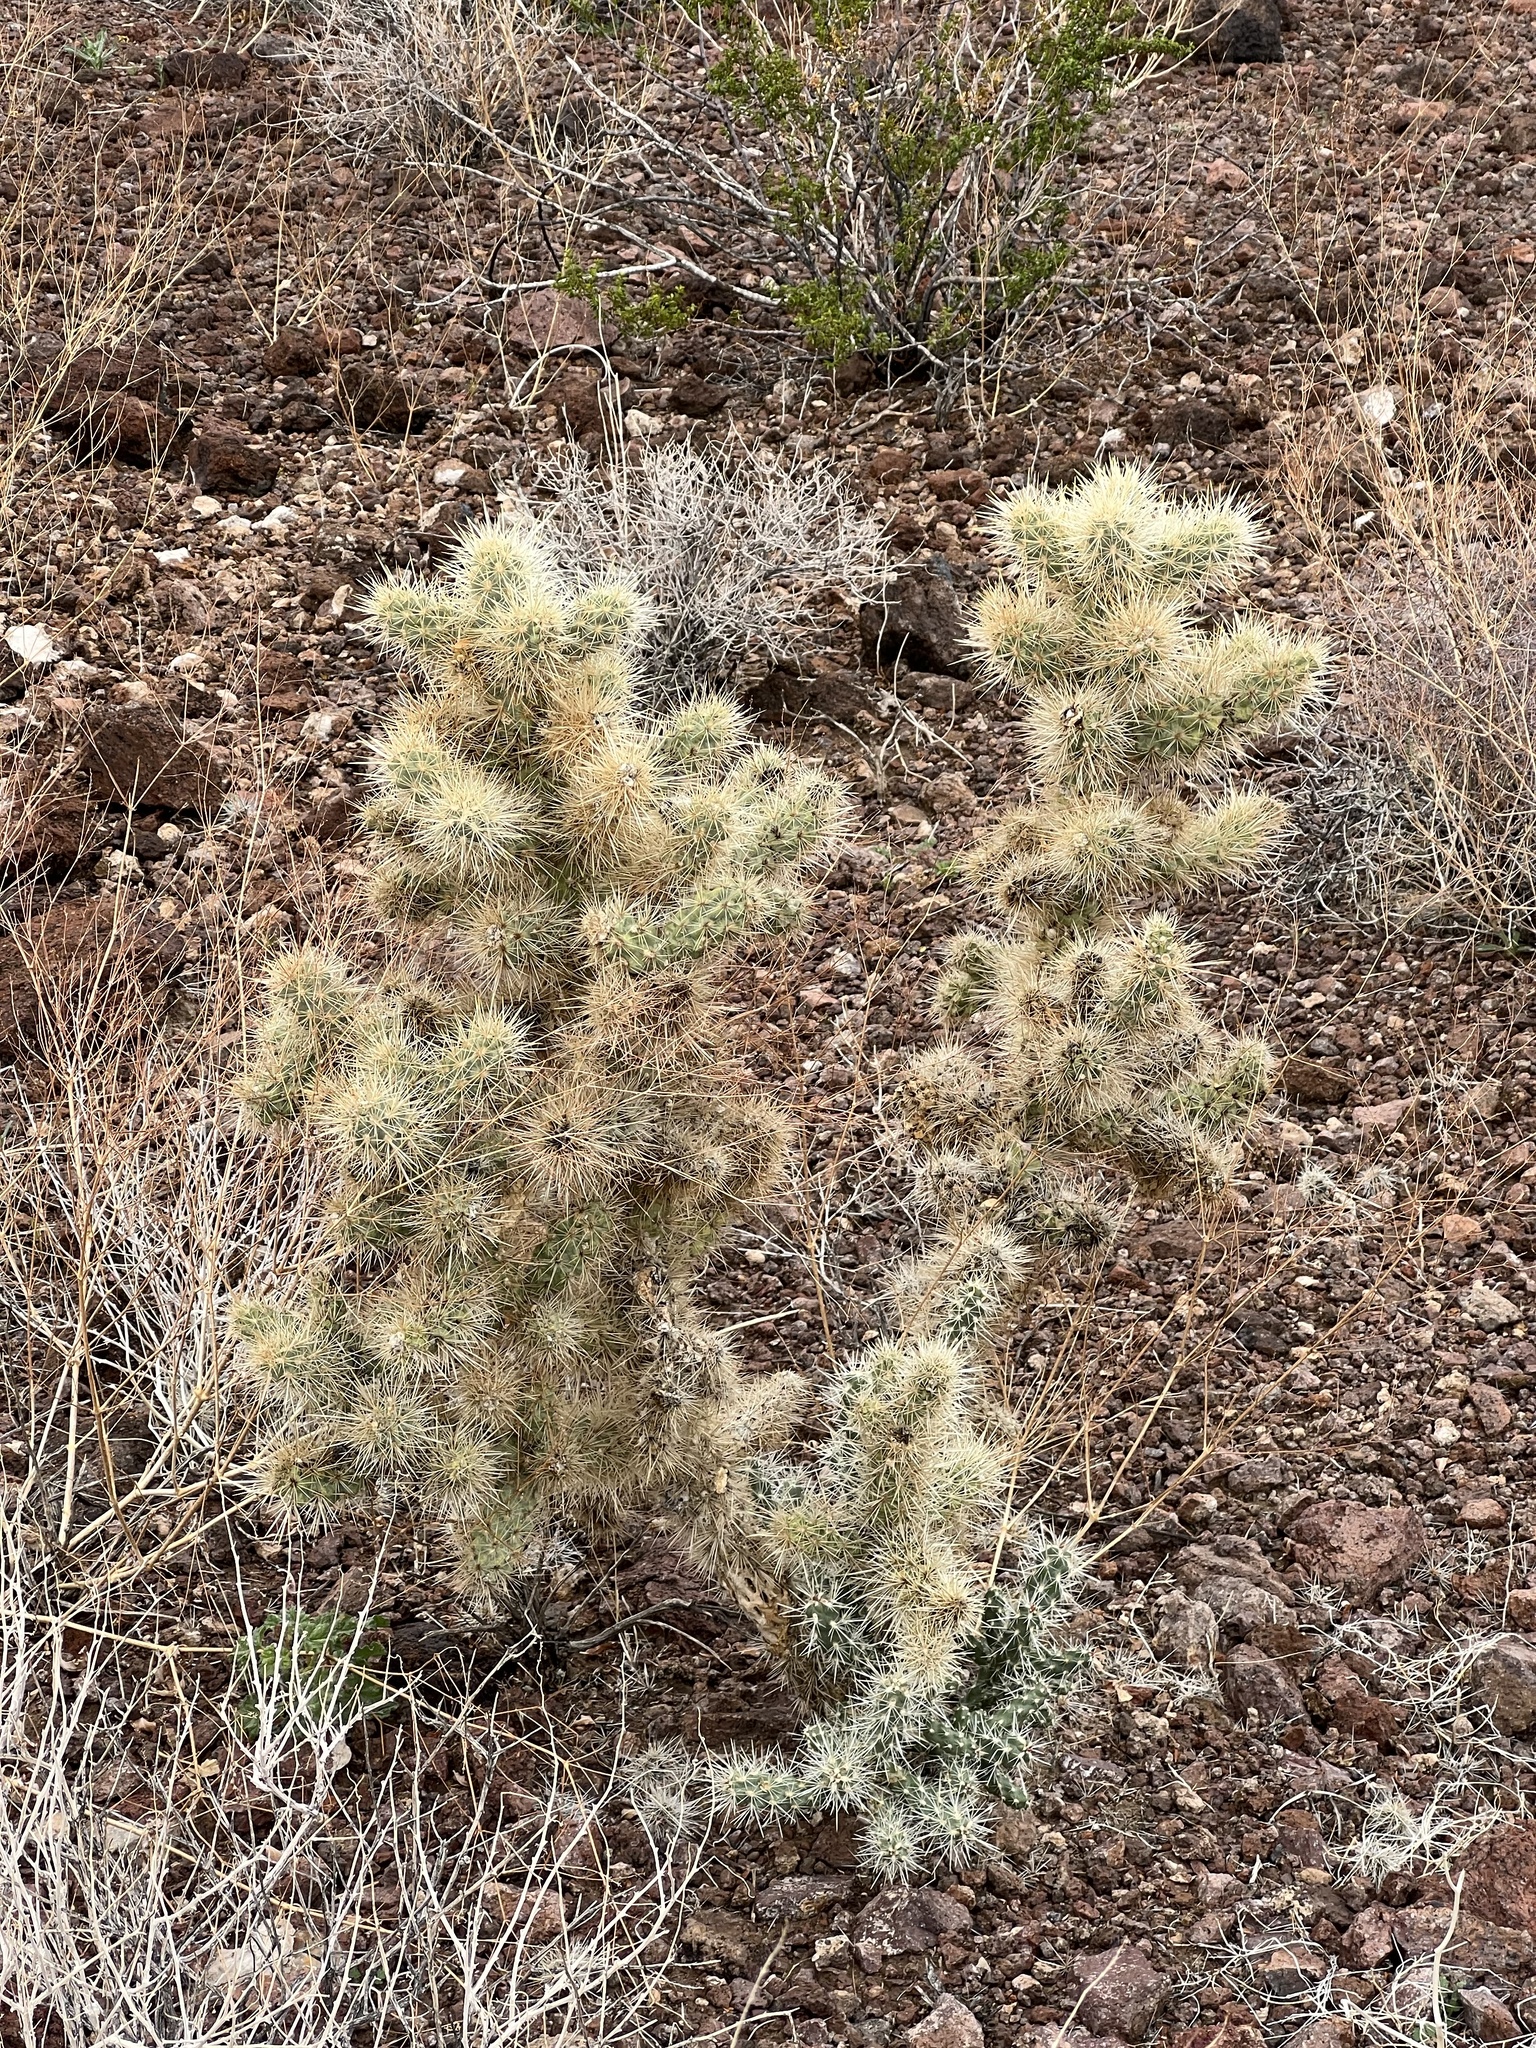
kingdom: Plantae
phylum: Tracheophyta
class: Magnoliopsida
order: Caryophyllales
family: Cactaceae
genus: Cylindropuntia
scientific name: Cylindropuntia echinocarpa
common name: Ground cholla
